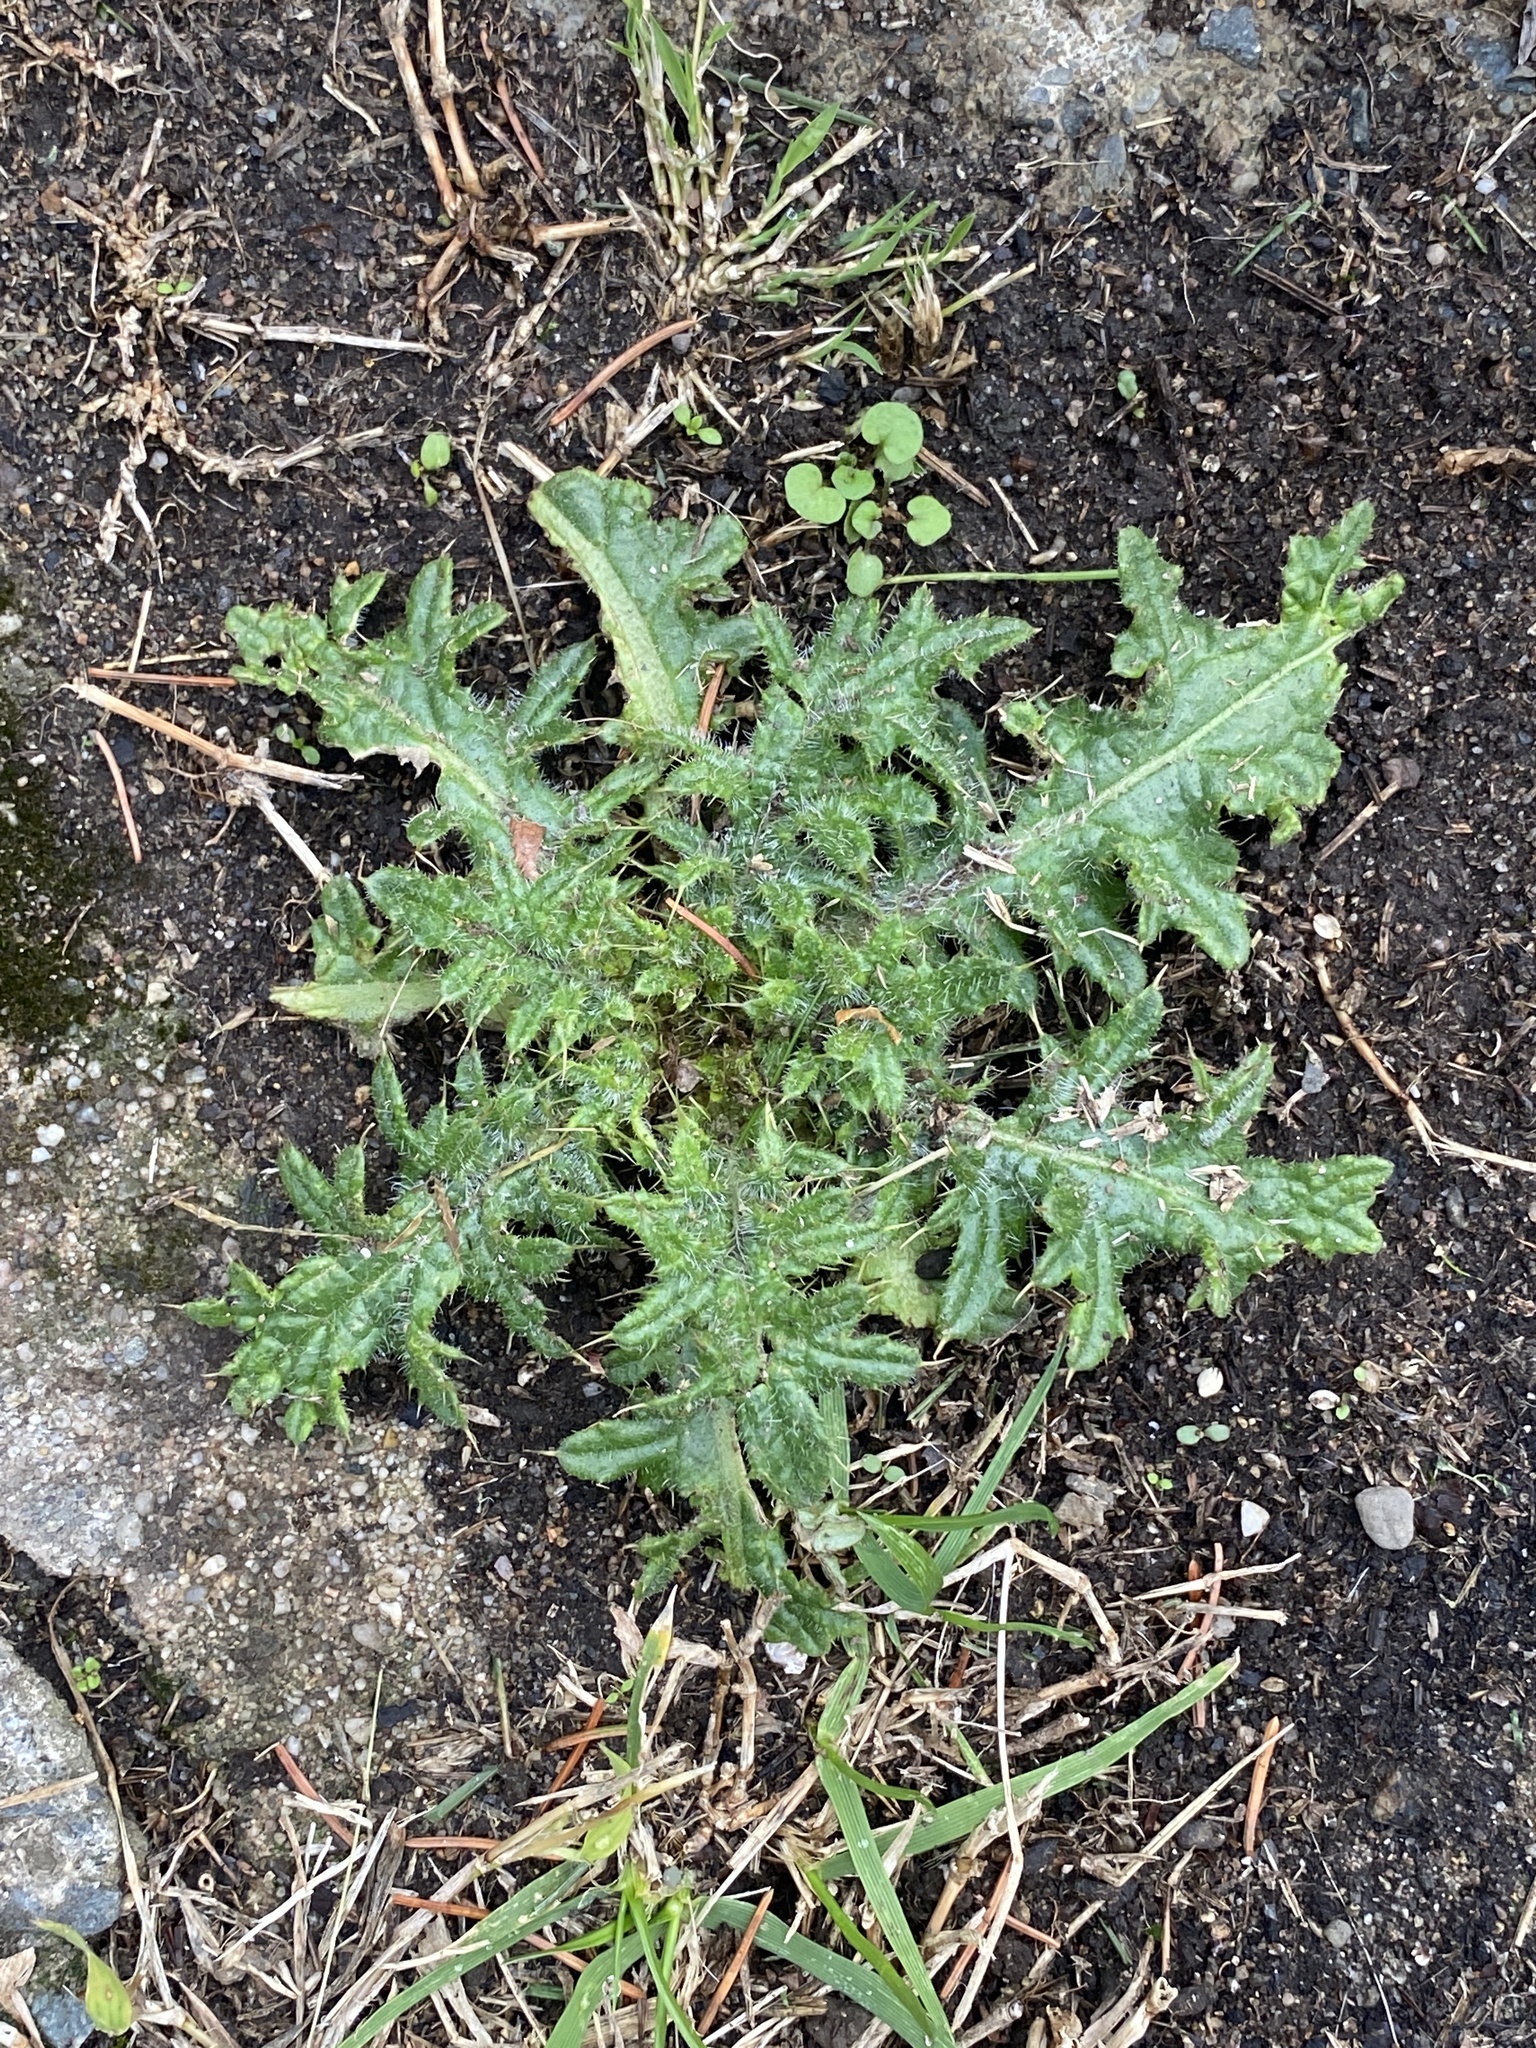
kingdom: Plantae
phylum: Tracheophyta
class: Magnoliopsida
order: Asterales
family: Asteraceae
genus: Cirsium
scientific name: Cirsium vulgare
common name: Bull thistle
